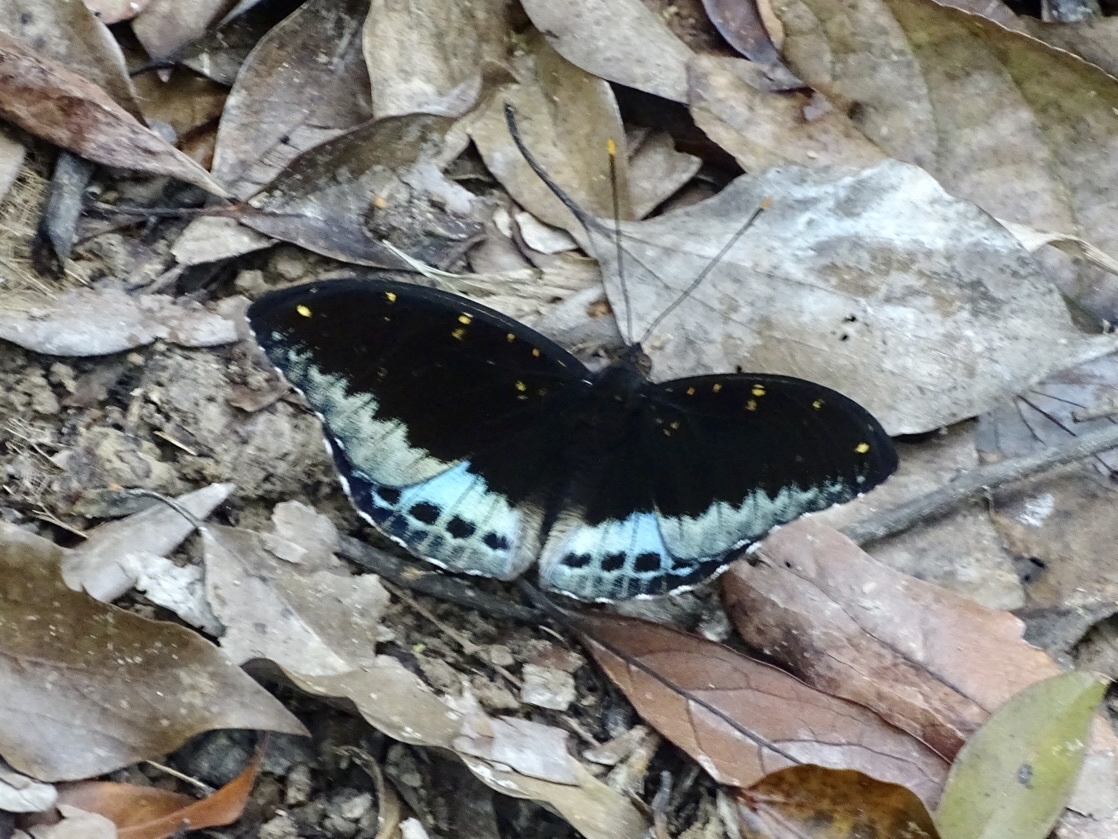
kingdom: Animalia
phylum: Arthropoda
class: Insecta
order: Lepidoptera
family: Nymphalidae
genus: Lexias
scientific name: Lexias pardalis
